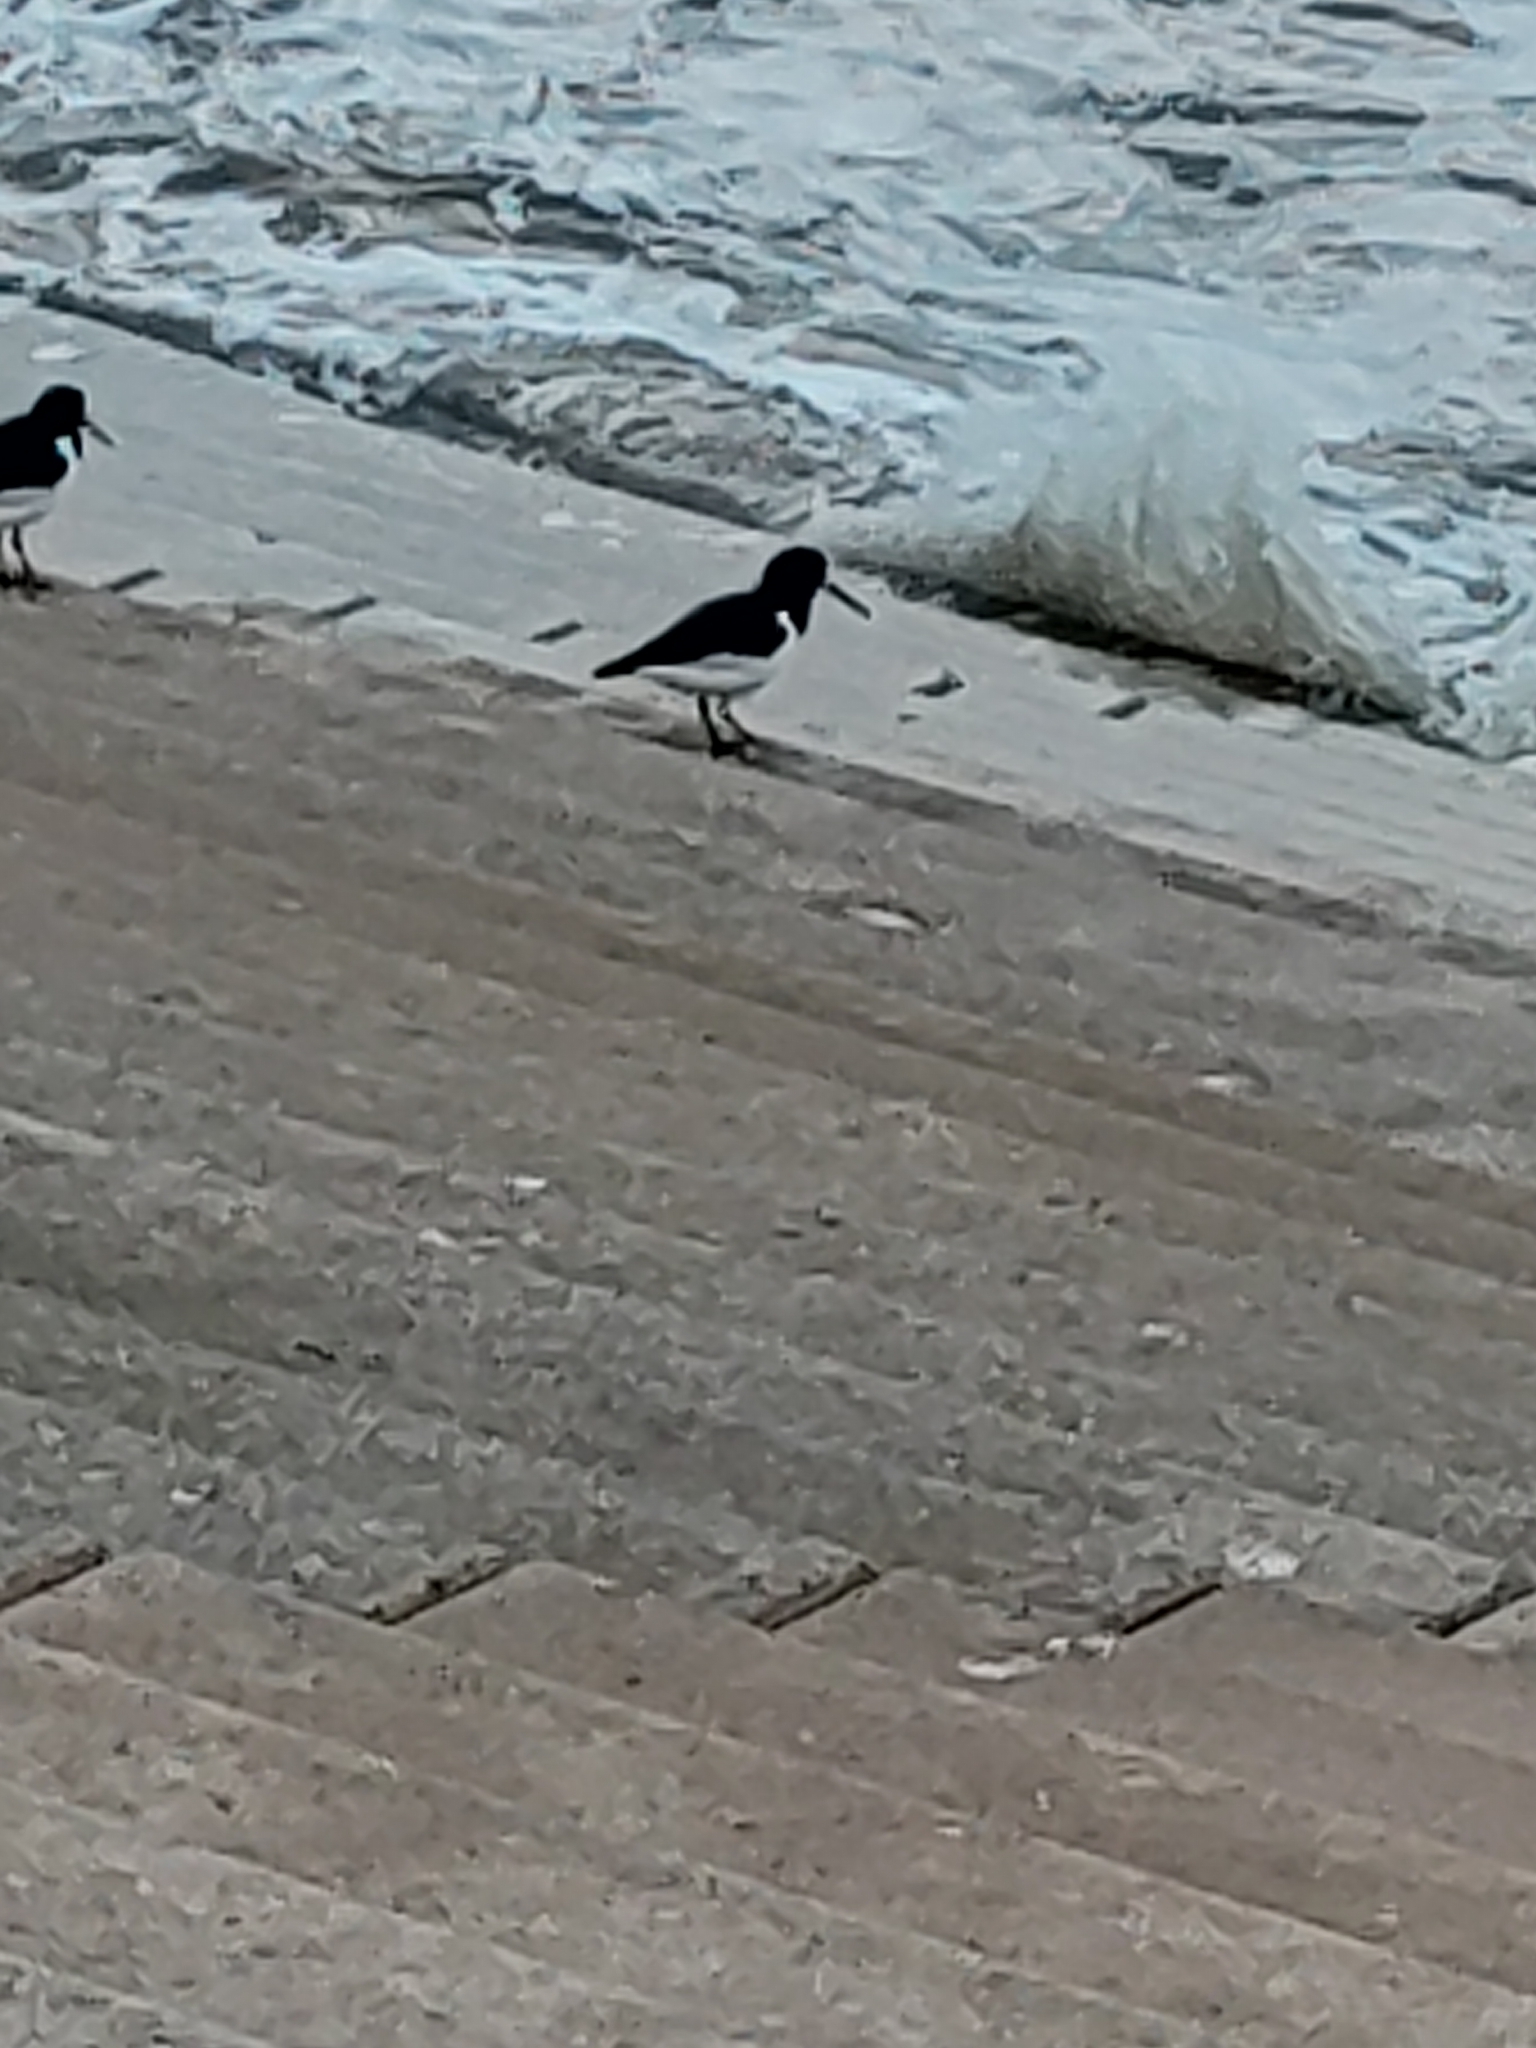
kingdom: Animalia
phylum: Chordata
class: Aves
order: Charadriiformes
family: Haematopodidae
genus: Haematopus
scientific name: Haematopus ostralegus
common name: Eurasian oystercatcher
